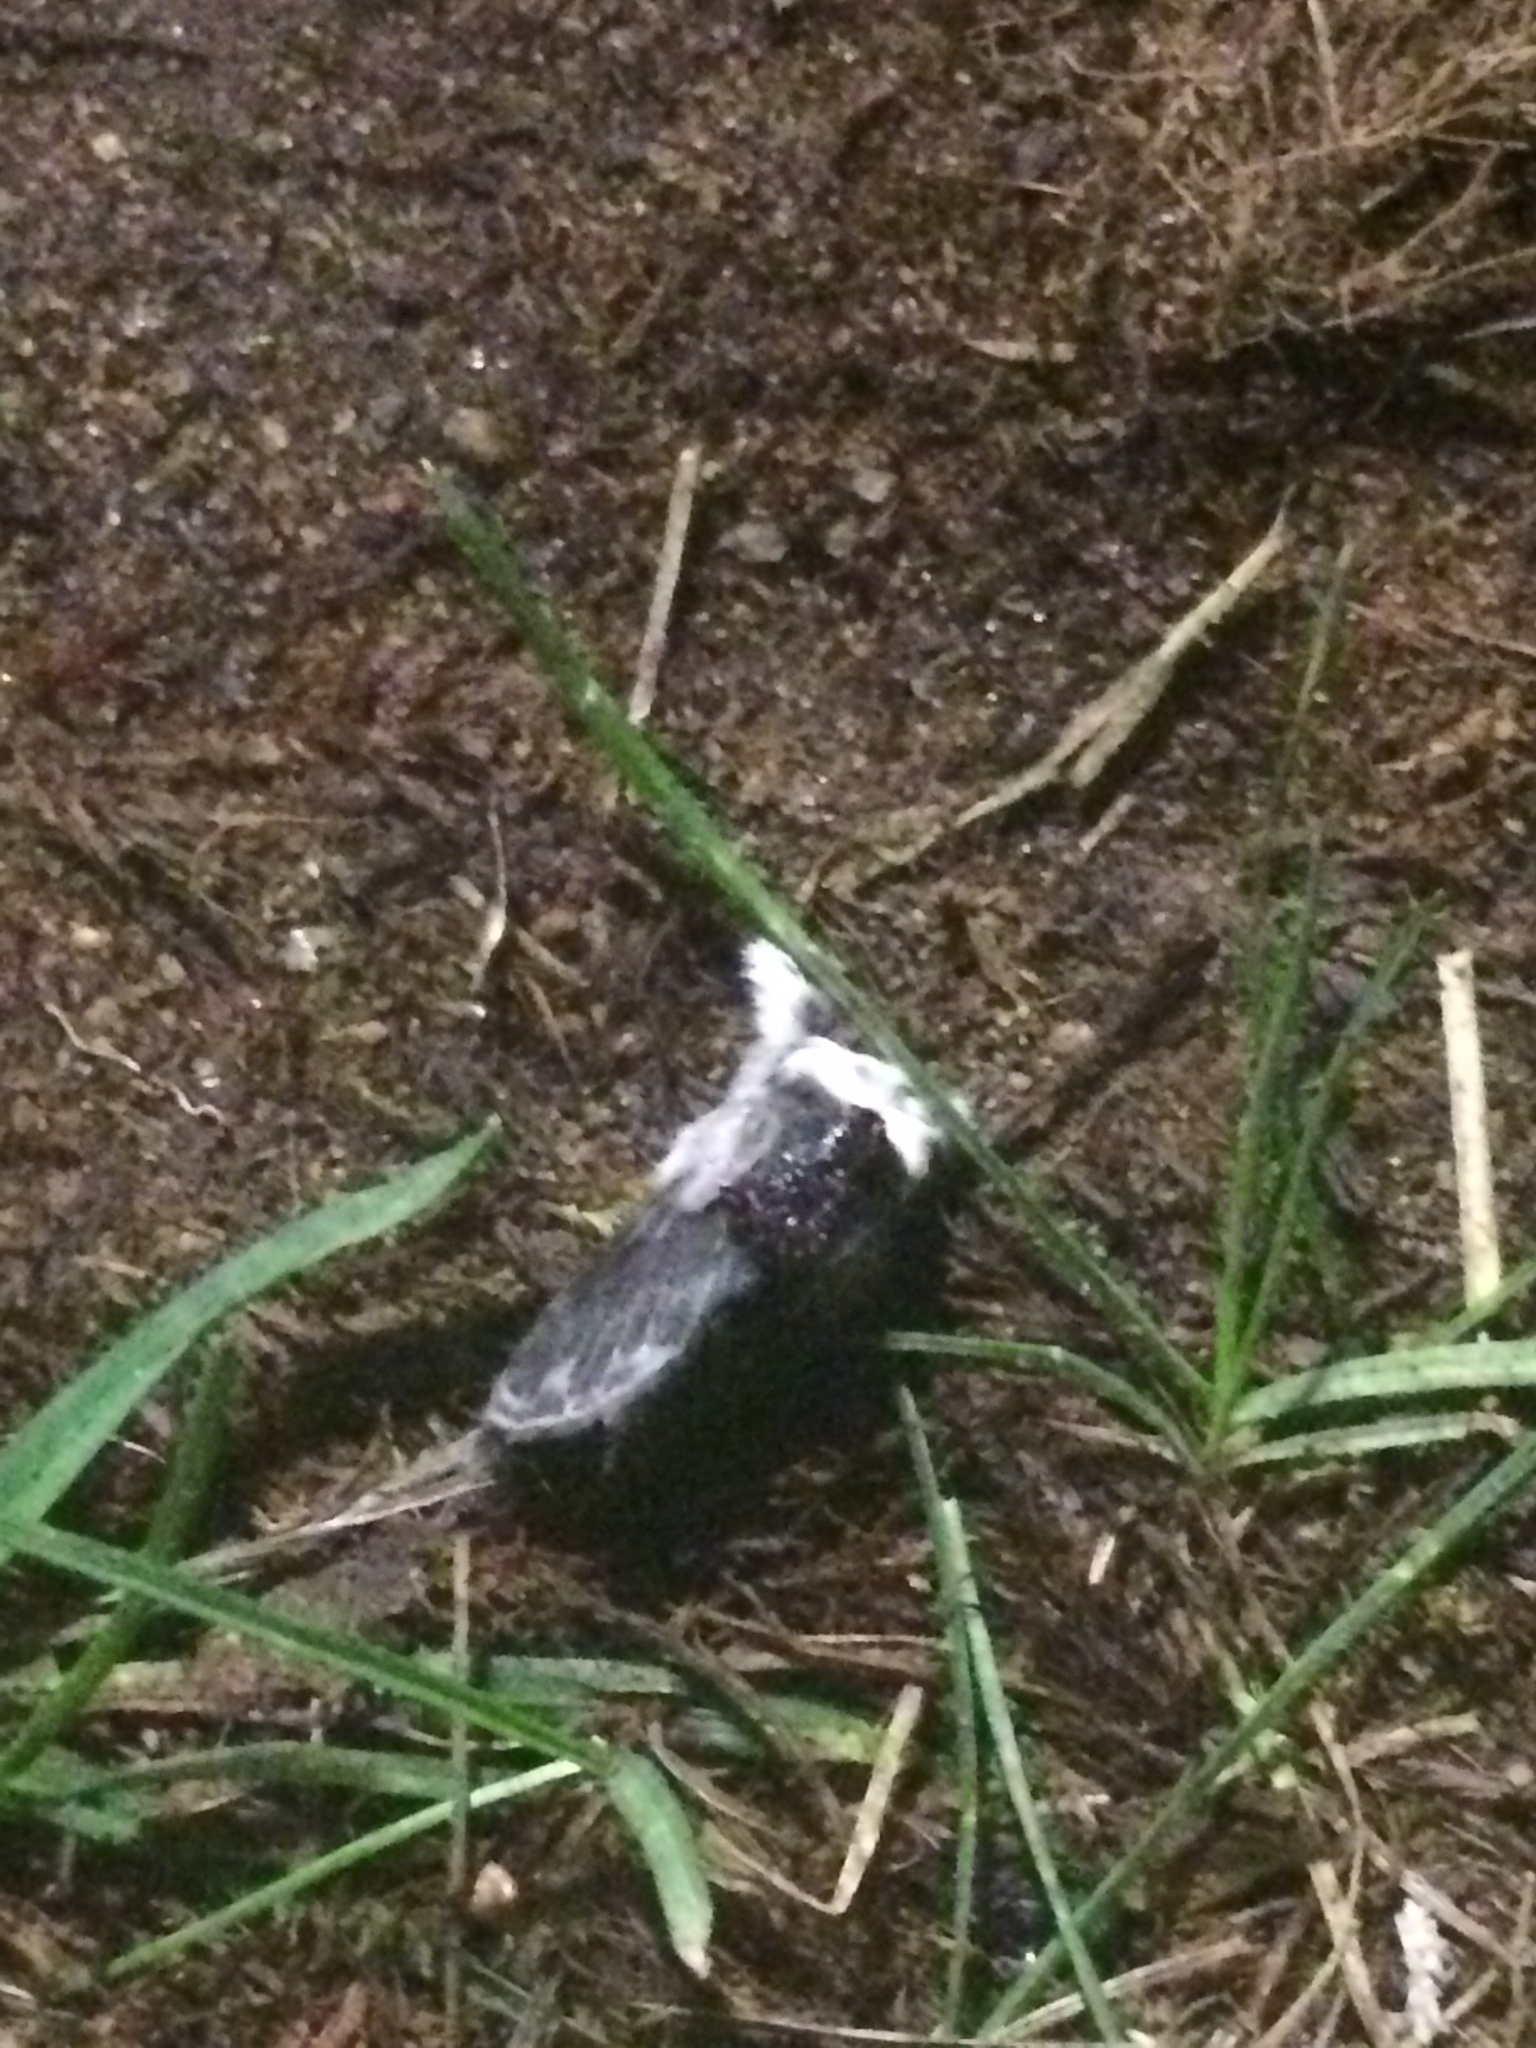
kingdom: Animalia
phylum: Arthropoda
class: Insecta
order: Lepidoptera
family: Lasiocampidae
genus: Tolype
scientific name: Tolype laricis
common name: Larch tolype moth
